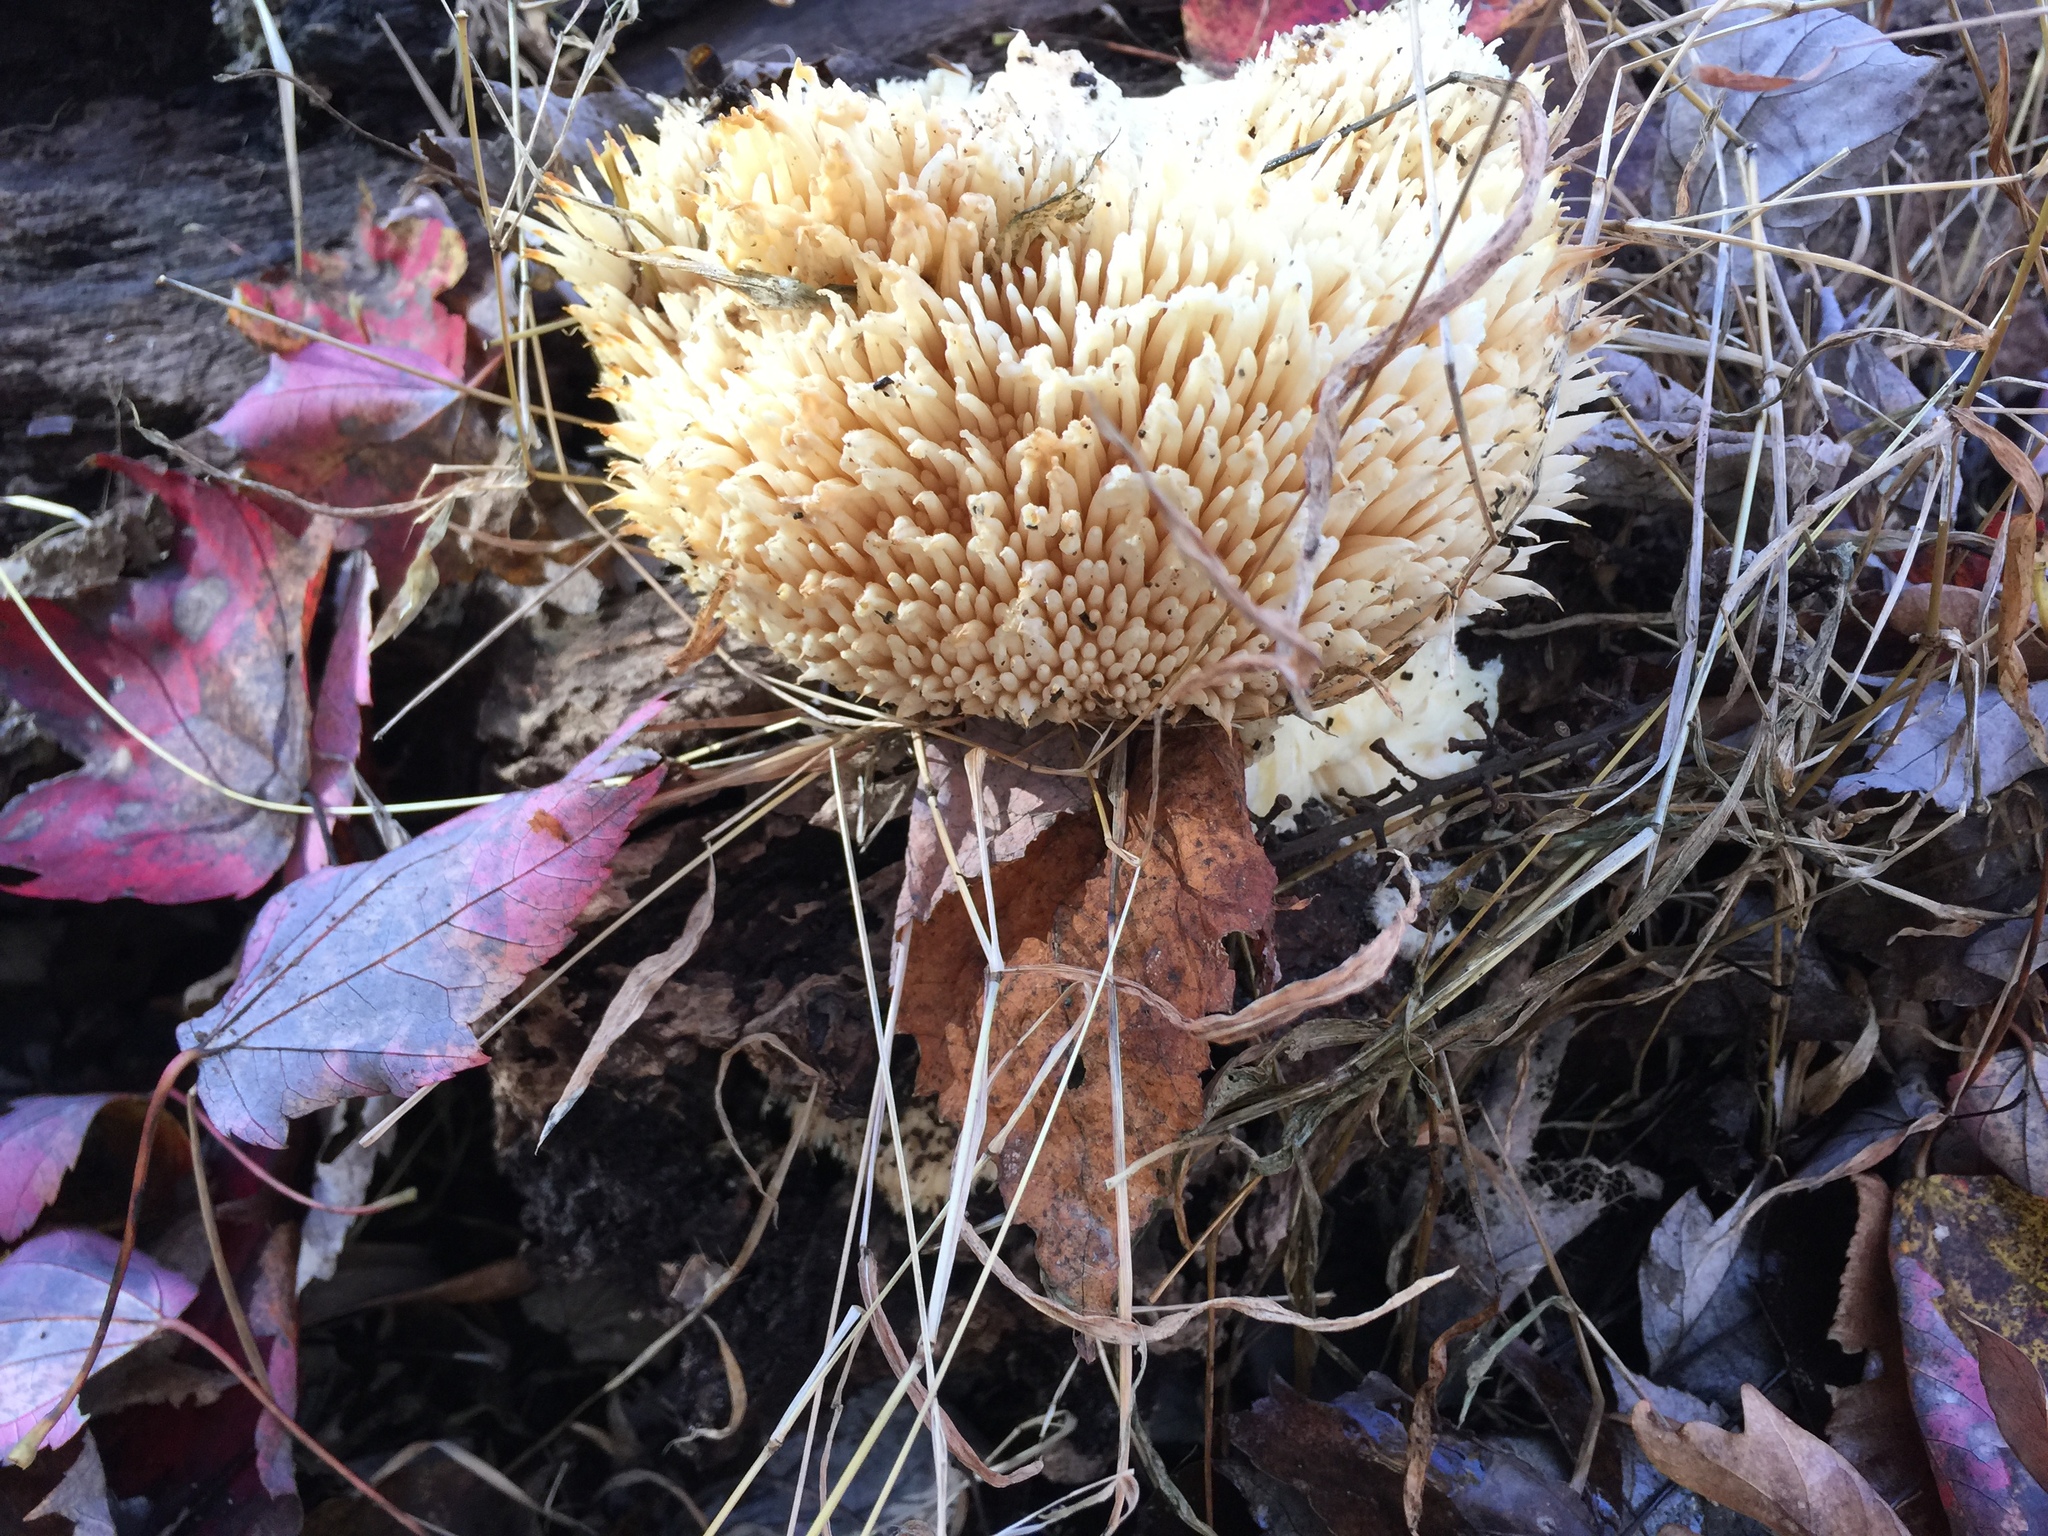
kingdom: Fungi
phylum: Basidiomycota
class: Agaricomycetes
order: Russulales
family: Hericiaceae
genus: Hericium
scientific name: Hericium erinaceus
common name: Bearded tooth
